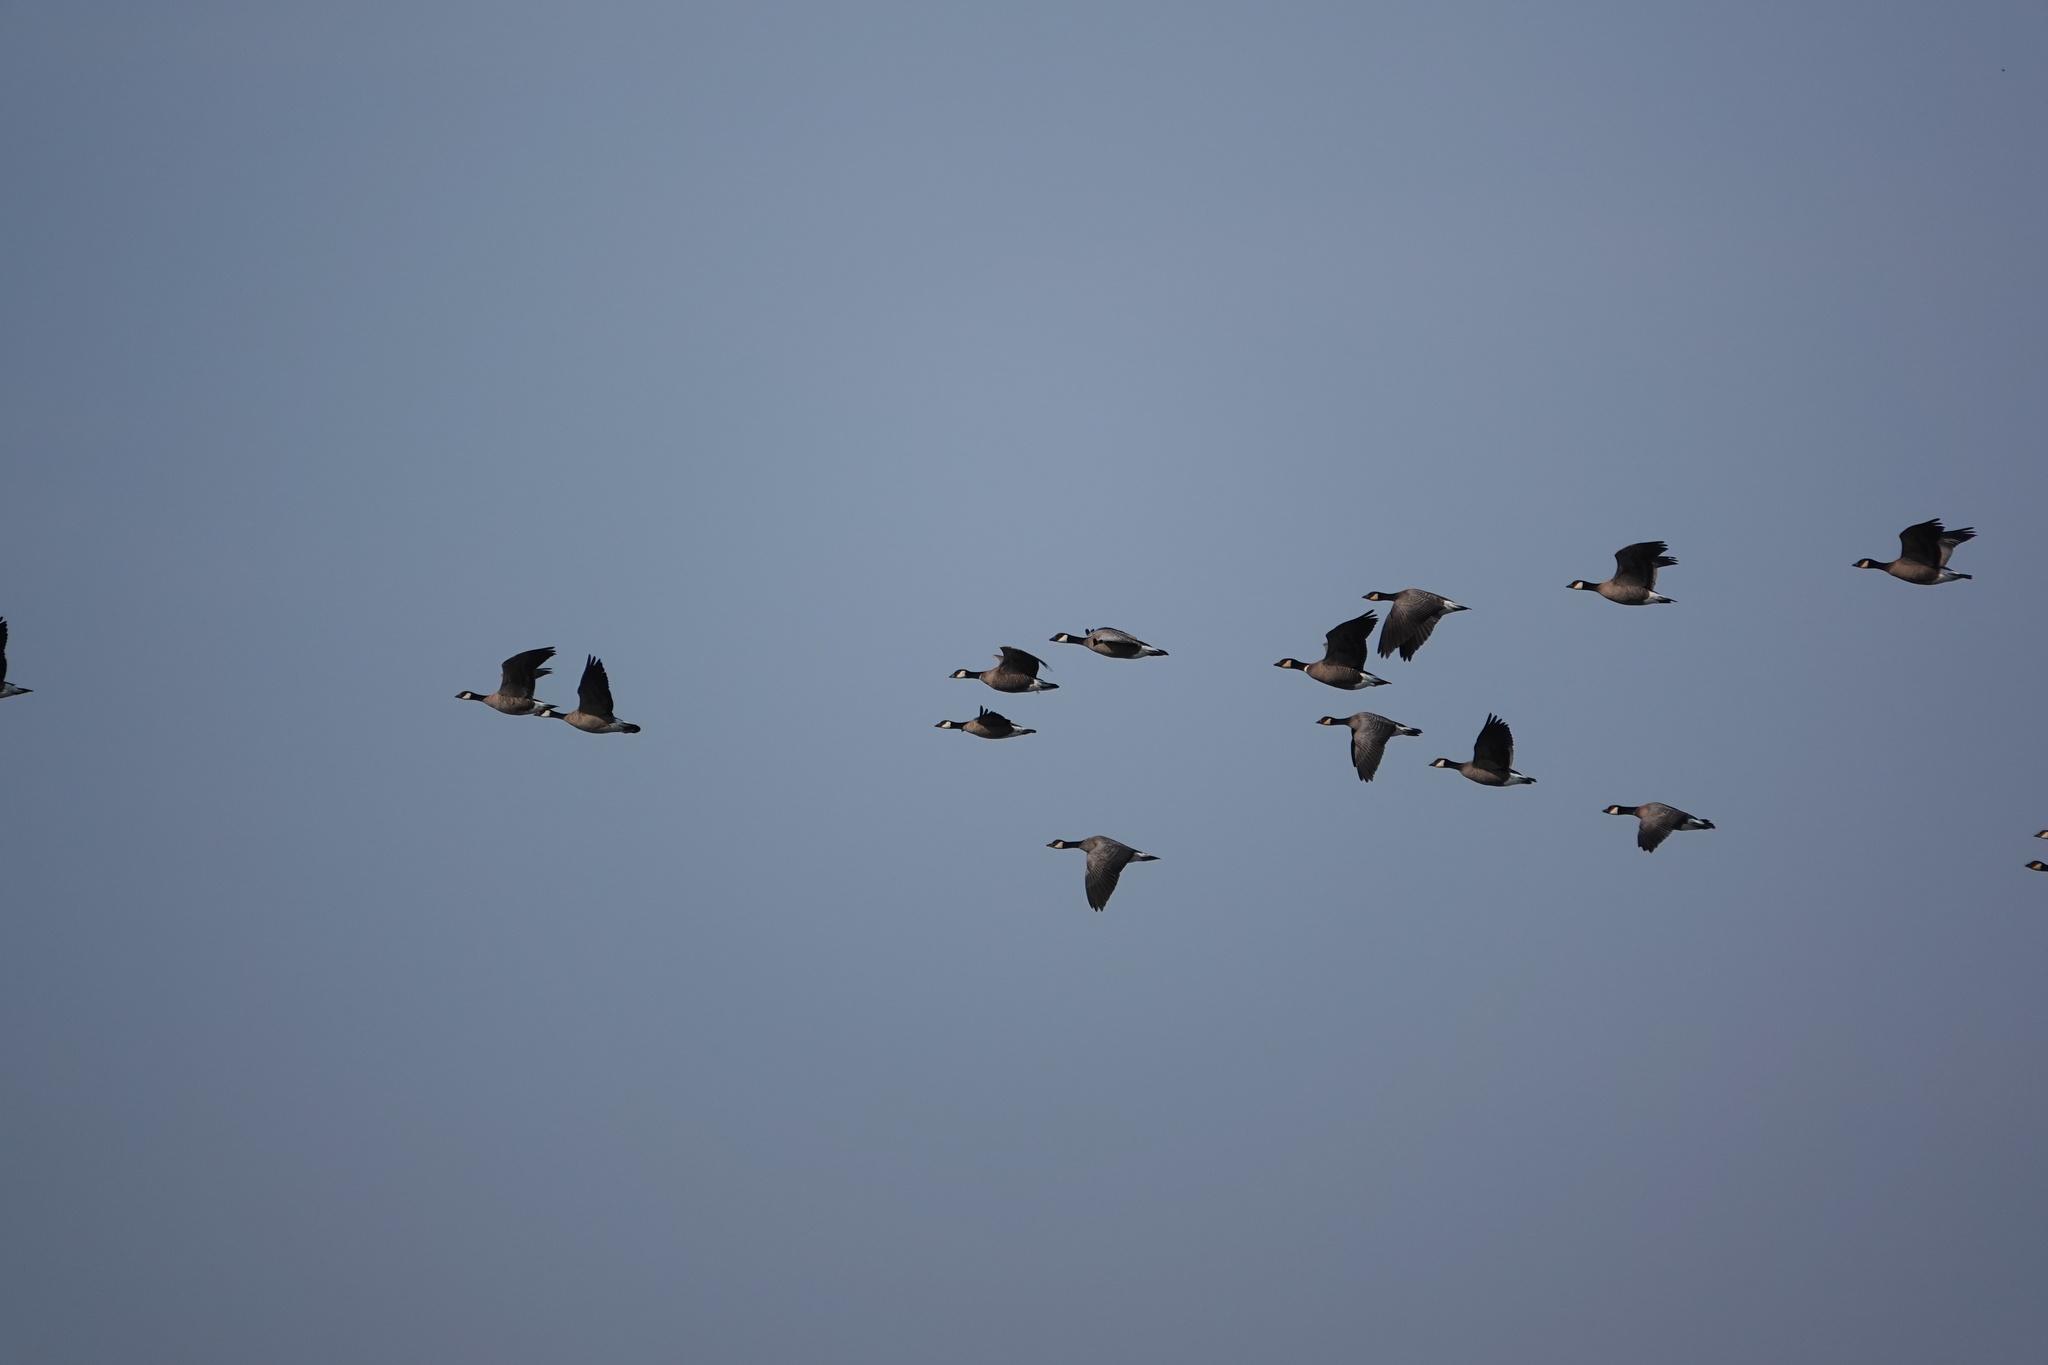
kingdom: Animalia
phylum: Chordata
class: Aves
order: Anseriformes
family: Anatidae
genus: Branta
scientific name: Branta hutchinsii
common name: Cackling goose
